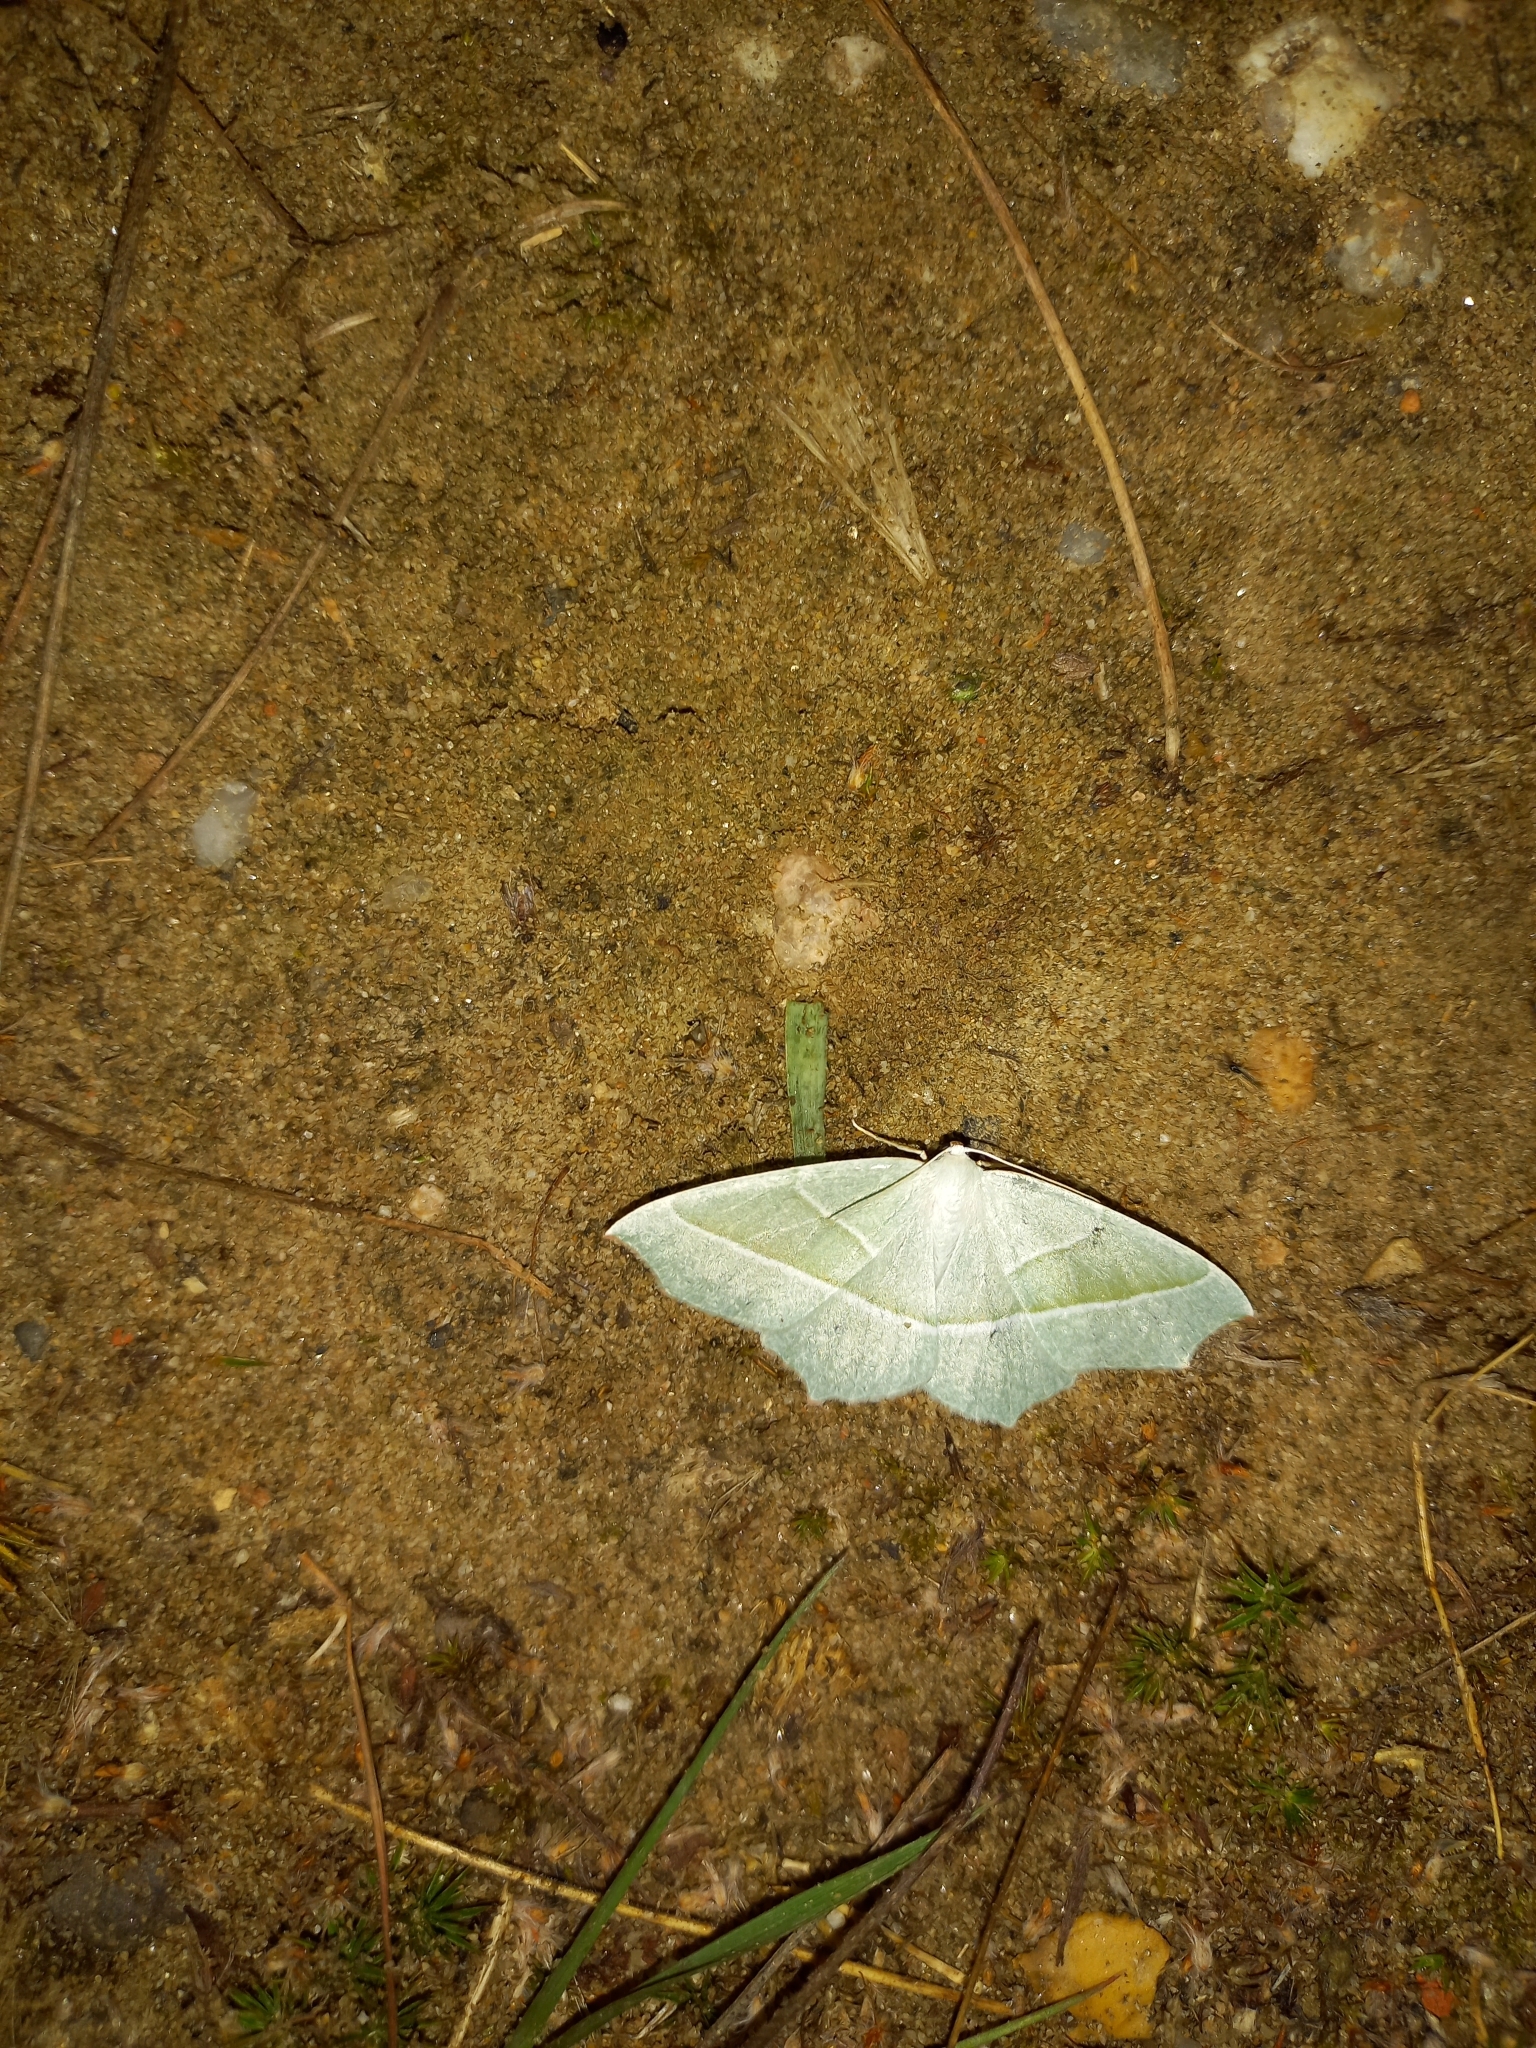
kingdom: Animalia
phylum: Arthropoda
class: Insecta
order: Lepidoptera
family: Geometridae
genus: Campaea
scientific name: Campaea margaritaria
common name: Light emerald
